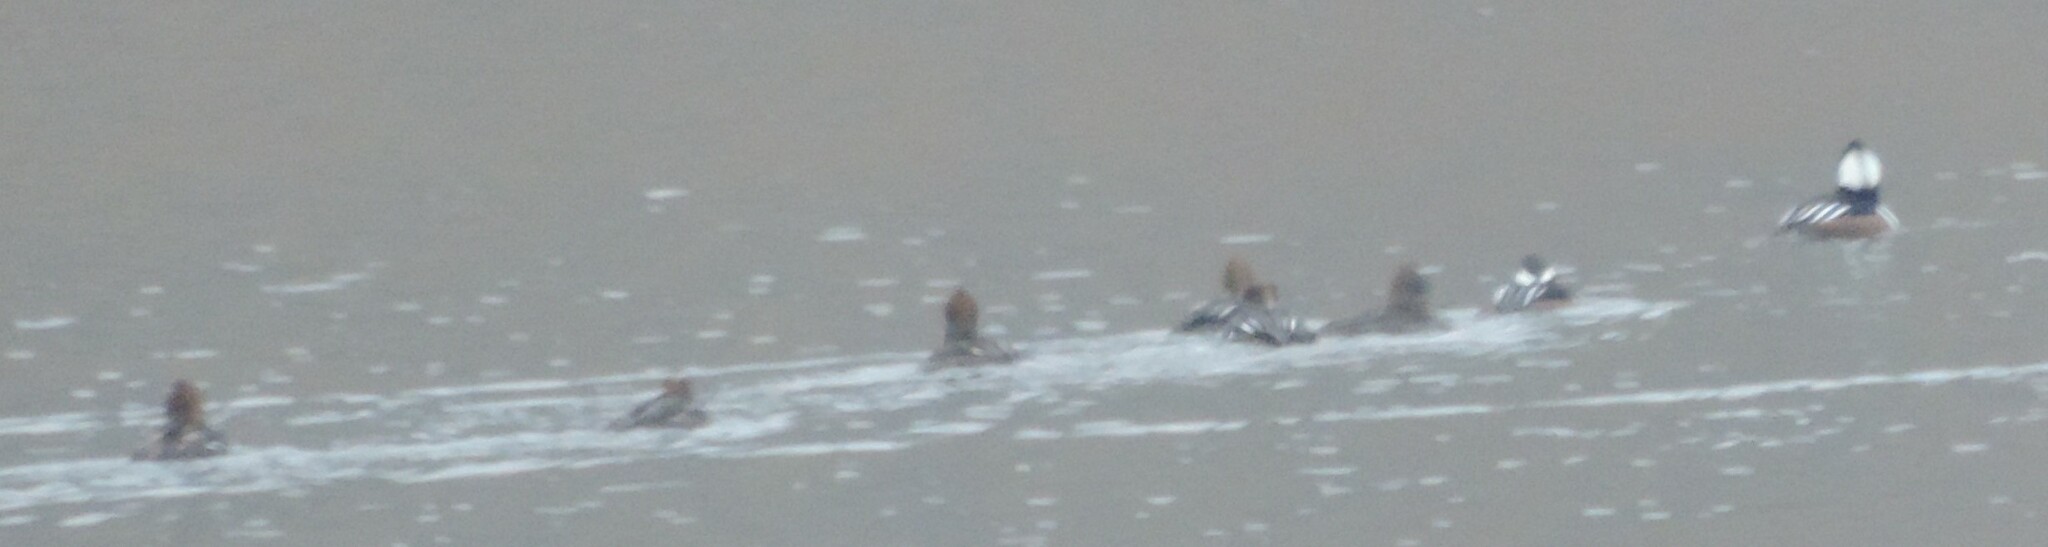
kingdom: Animalia
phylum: Chordata
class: Aves
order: Anseriformes
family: Anatidae
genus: Lophodytes
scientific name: Lophodytes cucullatus
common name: Hooded merganser
